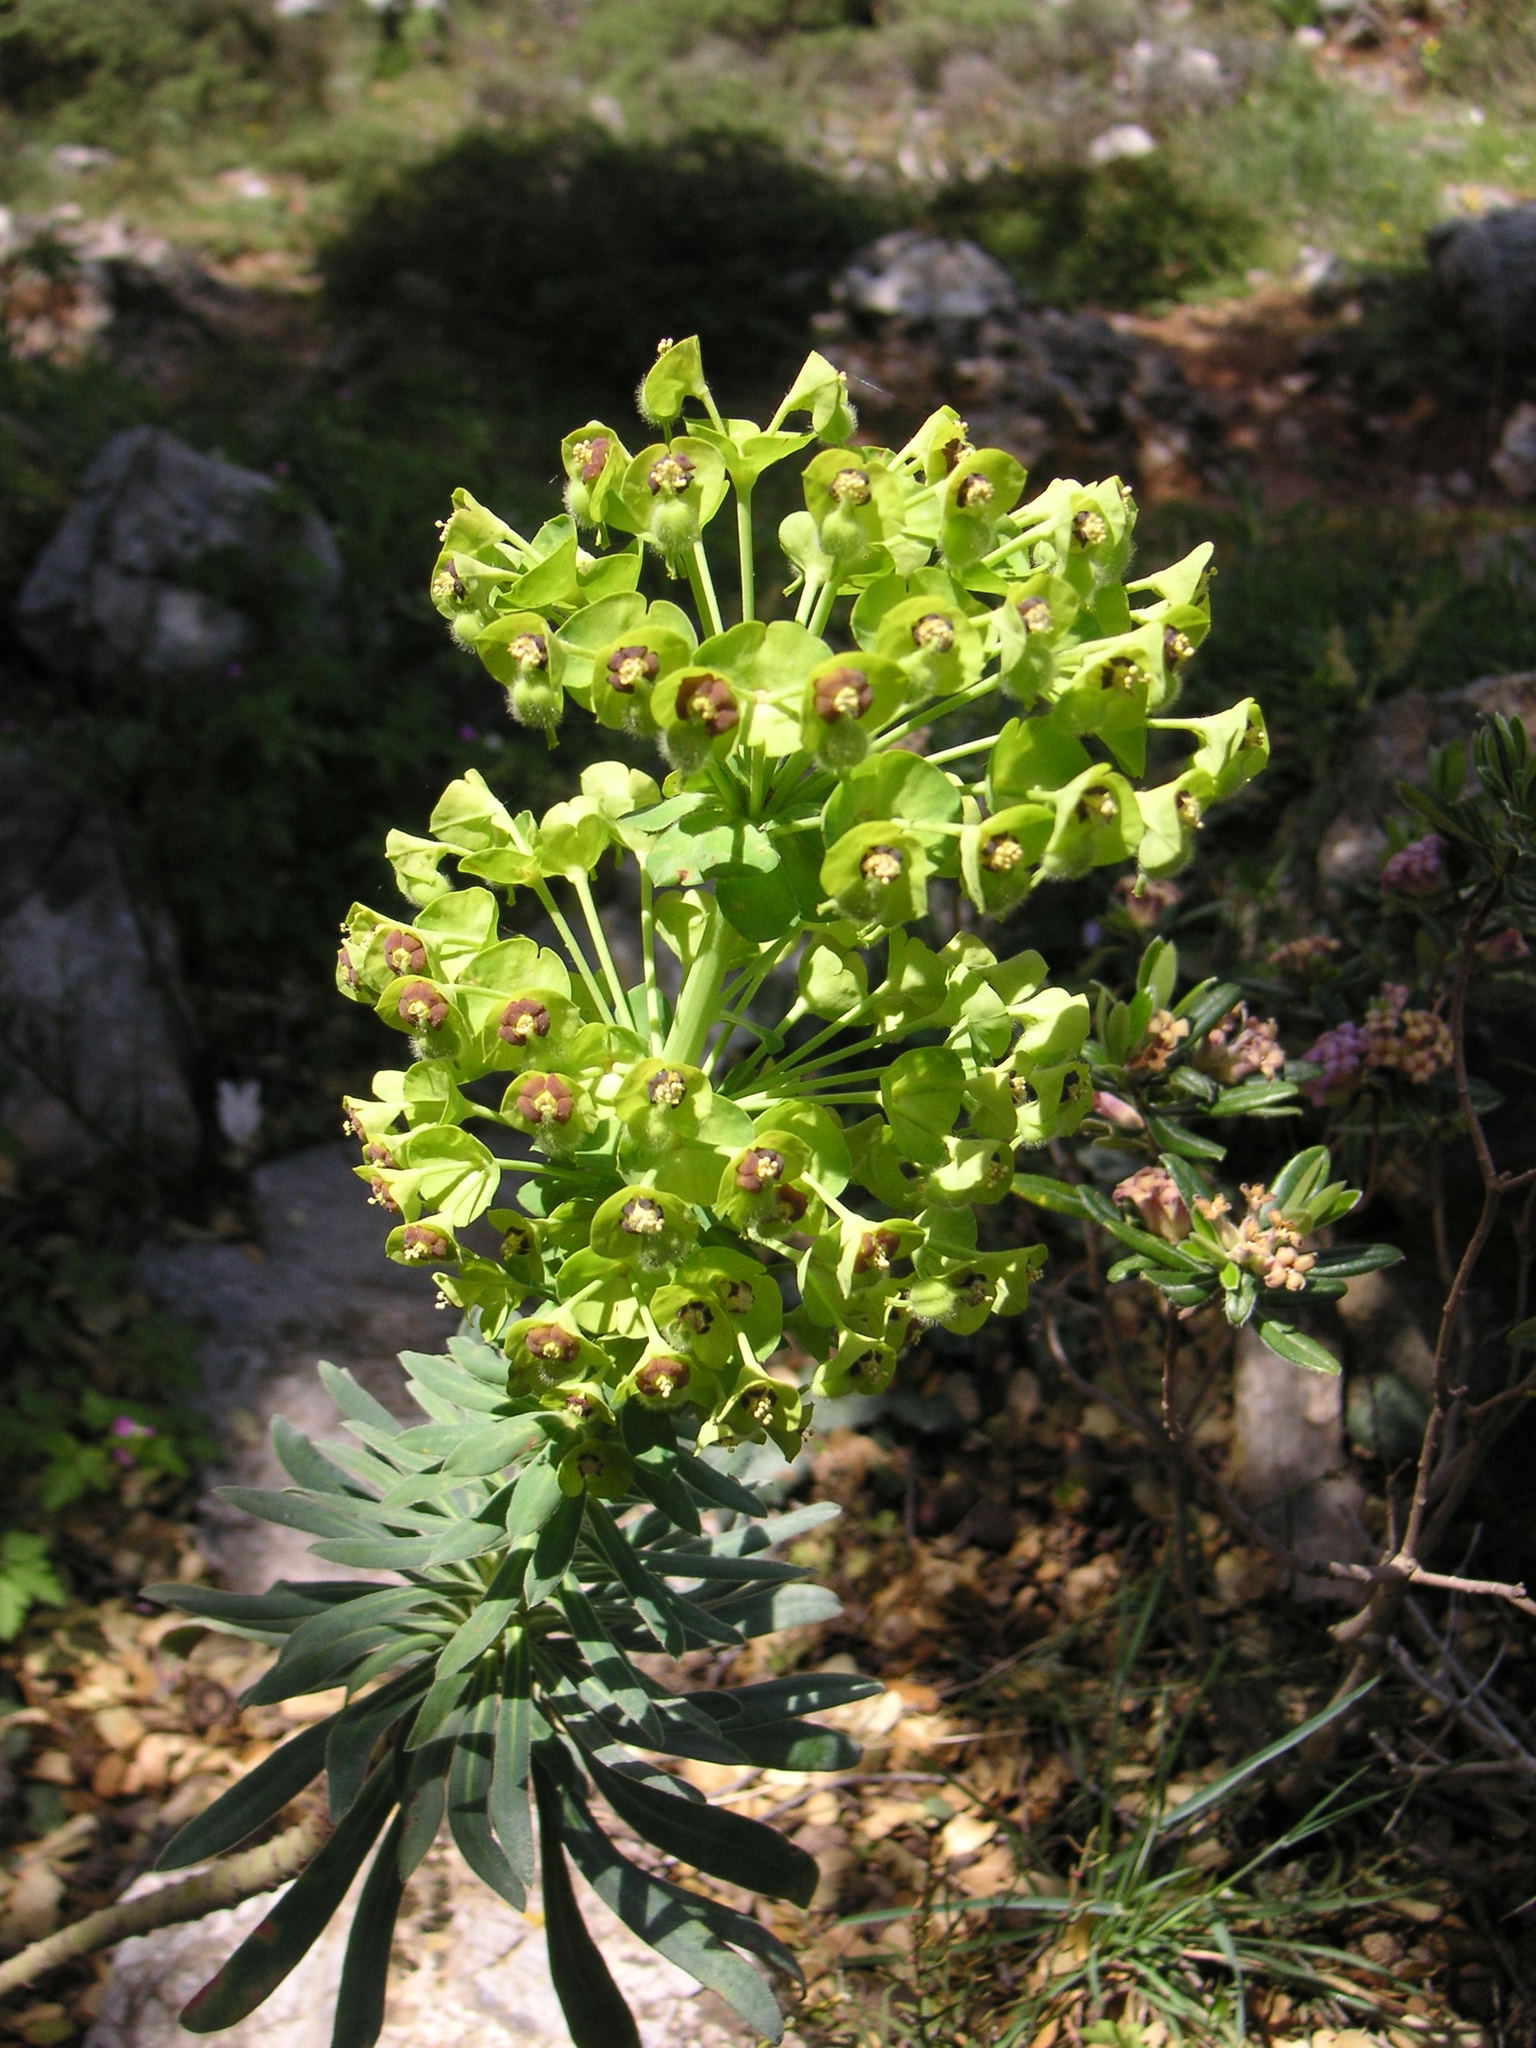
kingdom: Plantae
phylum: Tracheophyta
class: Magnoliopsida
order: Malpighiales
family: Euphorbiaceae
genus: Euphorbia
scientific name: Euphorbia characias
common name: Mediterranean spurge
